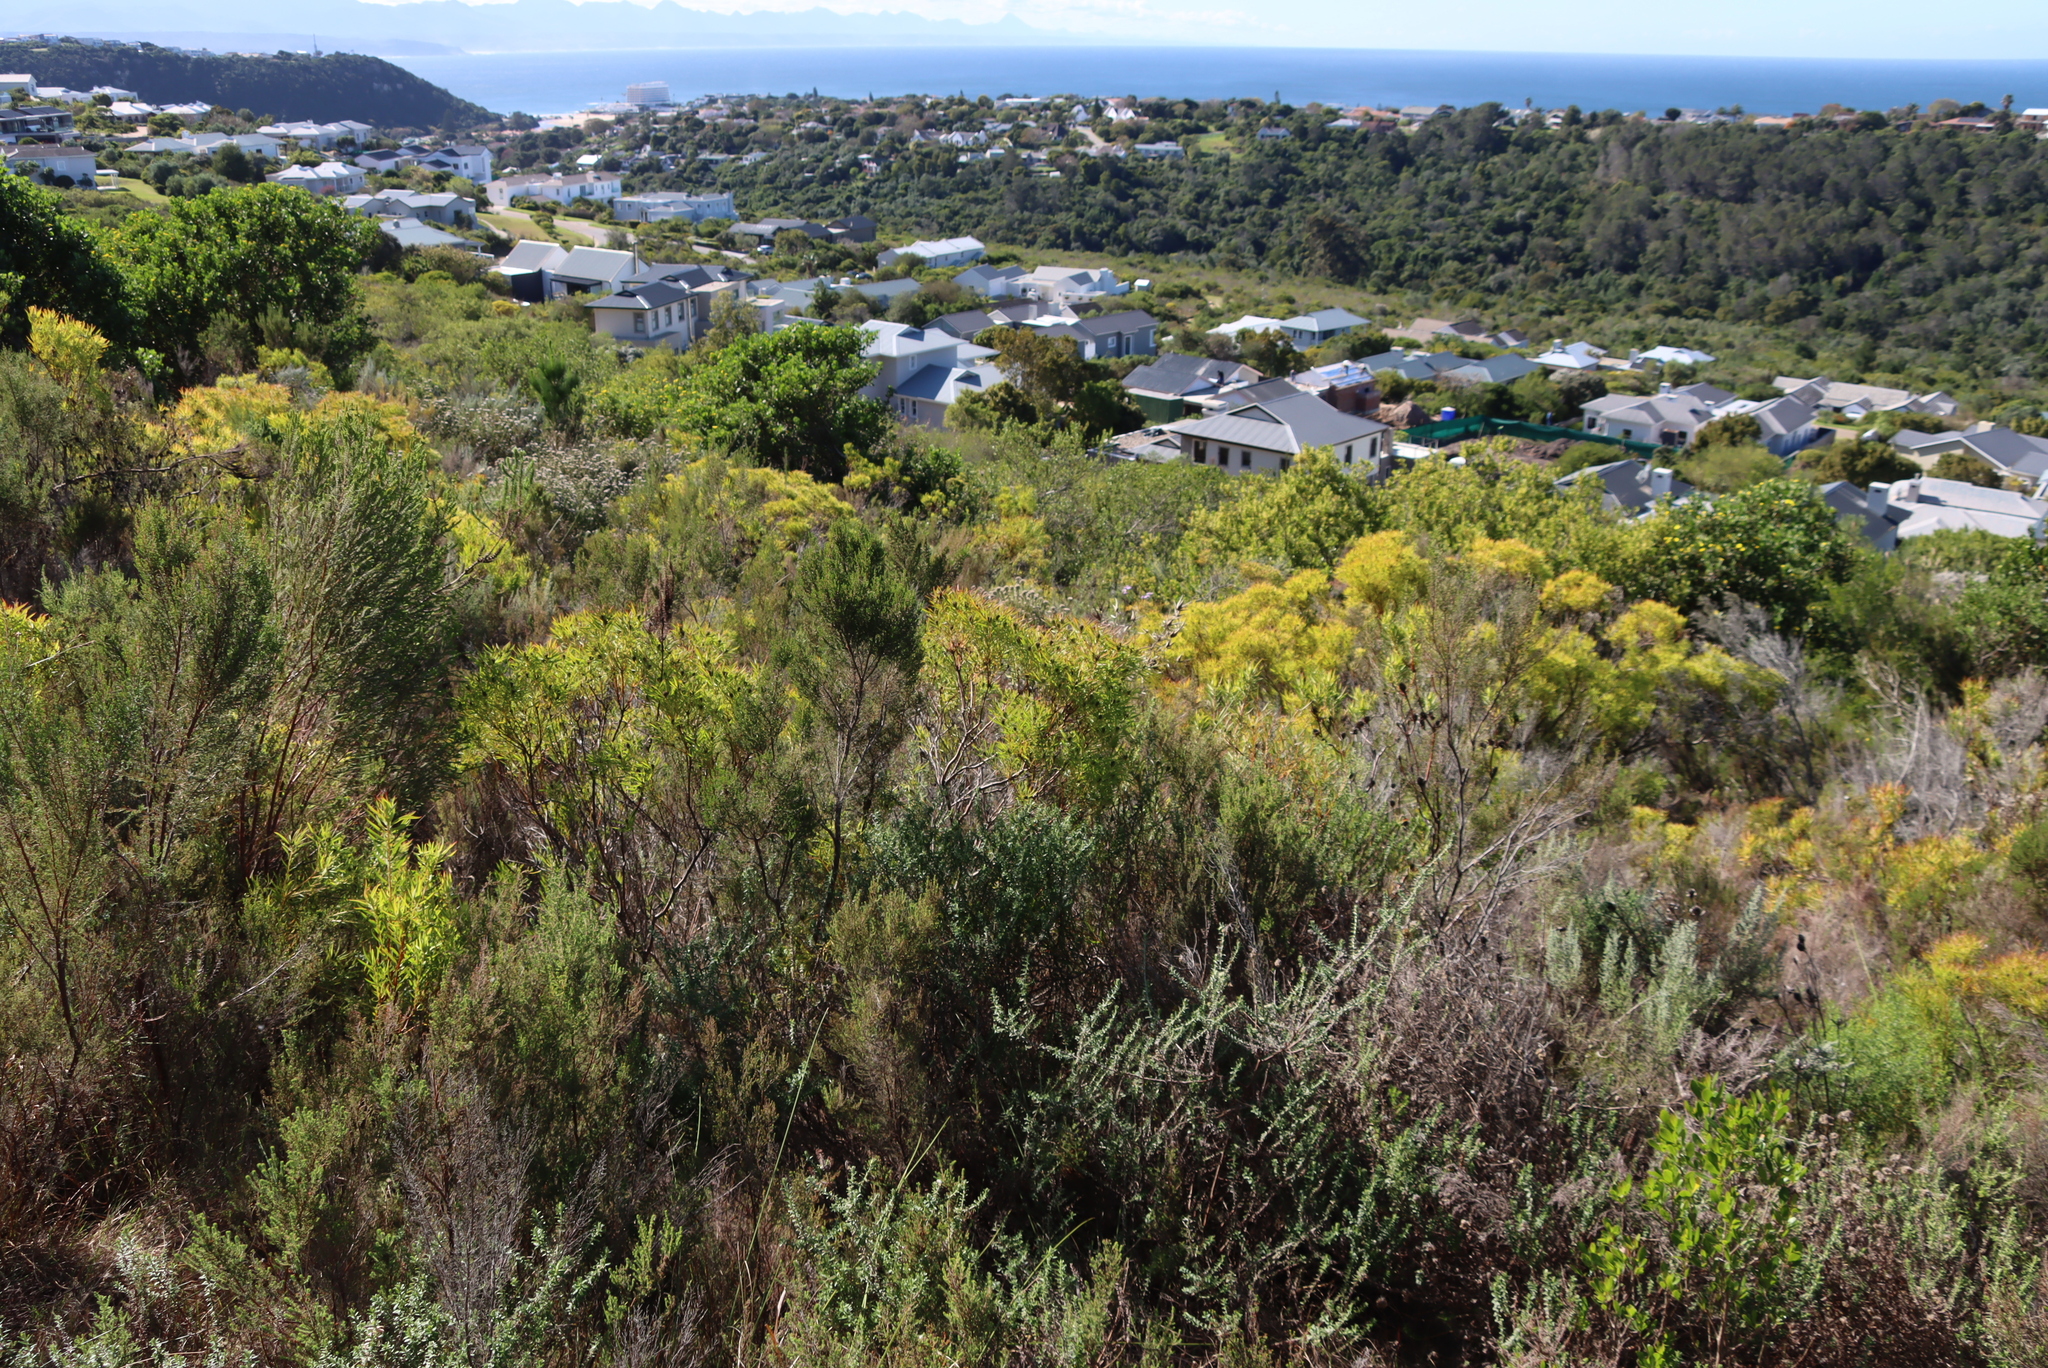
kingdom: Plantae
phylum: Tracheophyta
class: Magnoliopsida
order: Proteales
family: Proteaceae
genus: Leucadendron
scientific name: Leucadendron salignum
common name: Common sunshine conebush
